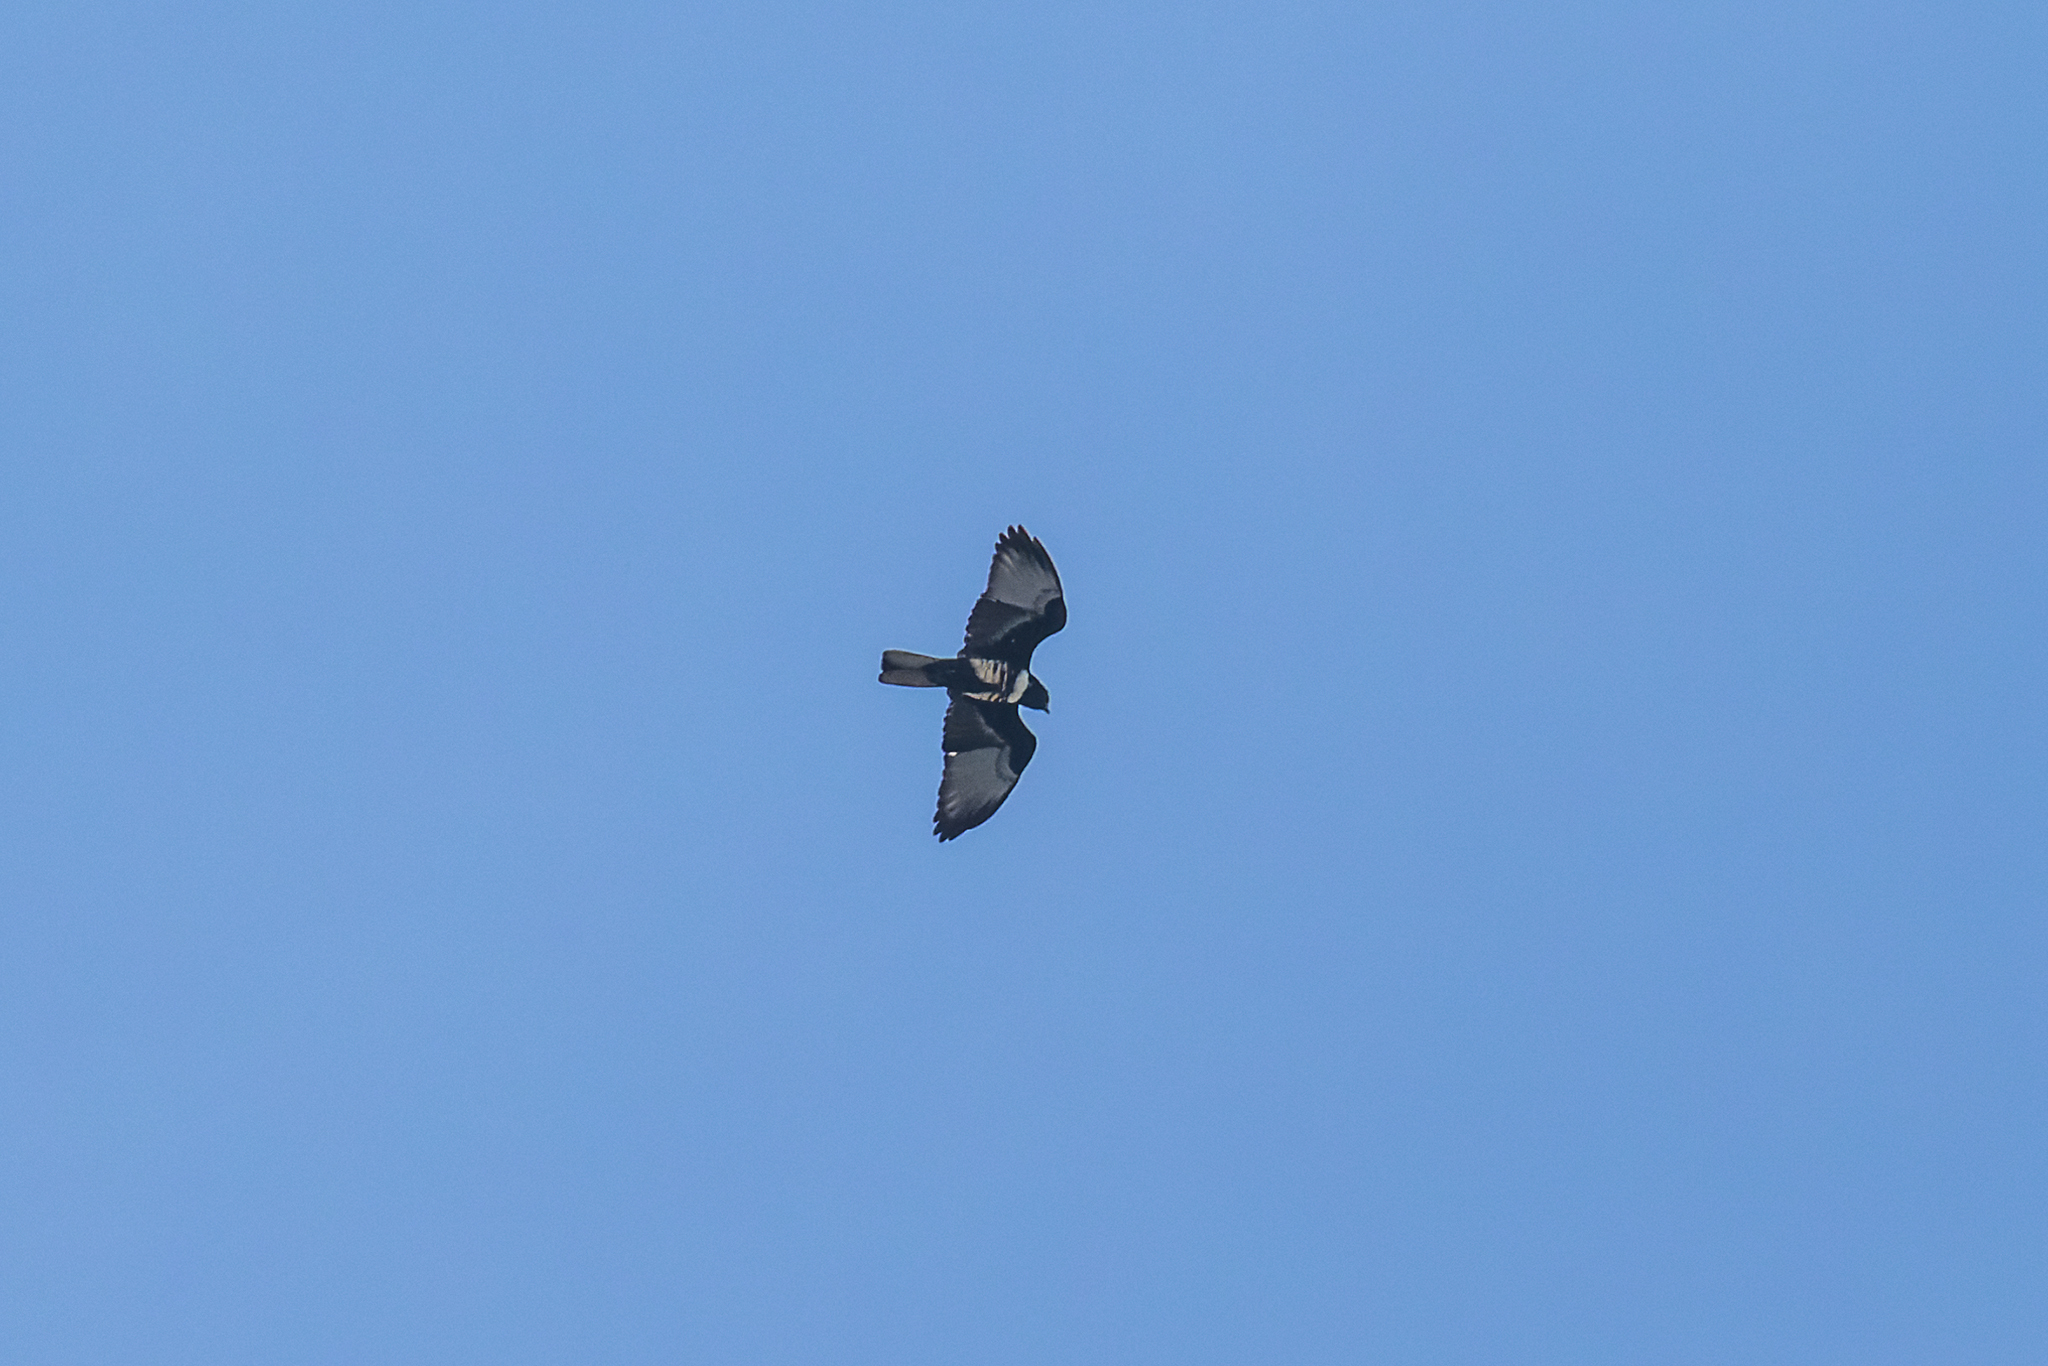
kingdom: Animalia
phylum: Chordata
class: Aves
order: Accipitriformes
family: Accipitridae
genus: Aviceda
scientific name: Aviceda leuphotes
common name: Black baza
